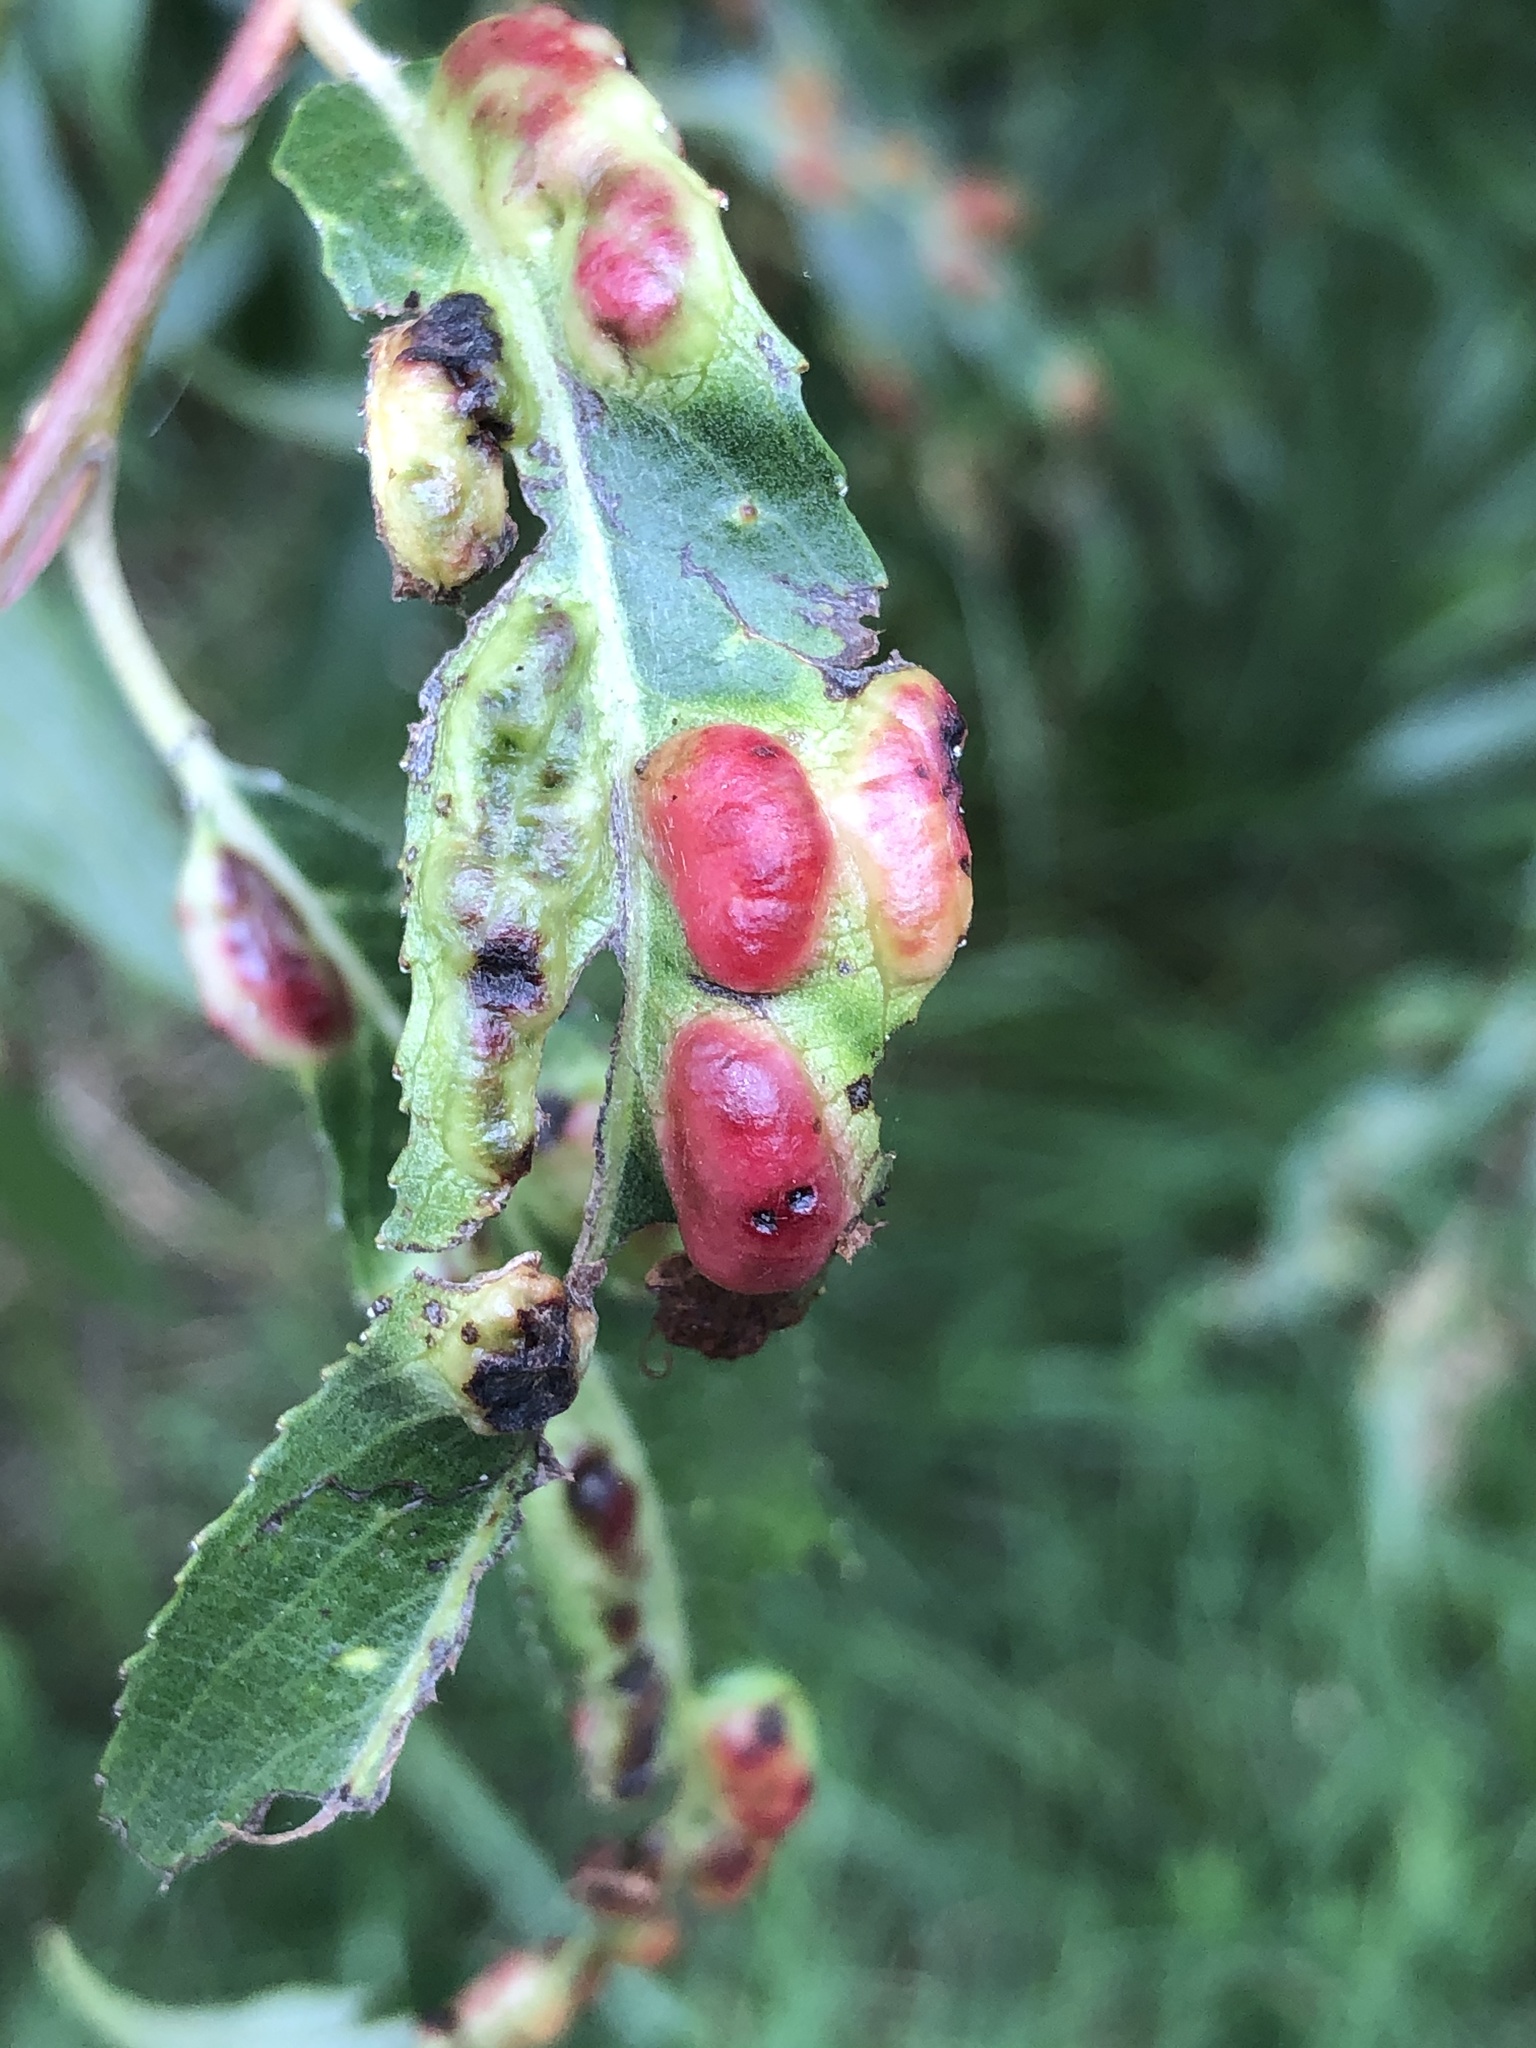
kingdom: Animalia
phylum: Arthropoda
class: Insecta
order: Hymenoptera
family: Tenthredinidae
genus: Pontania
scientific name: Pontania proxima
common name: Common sawfly
